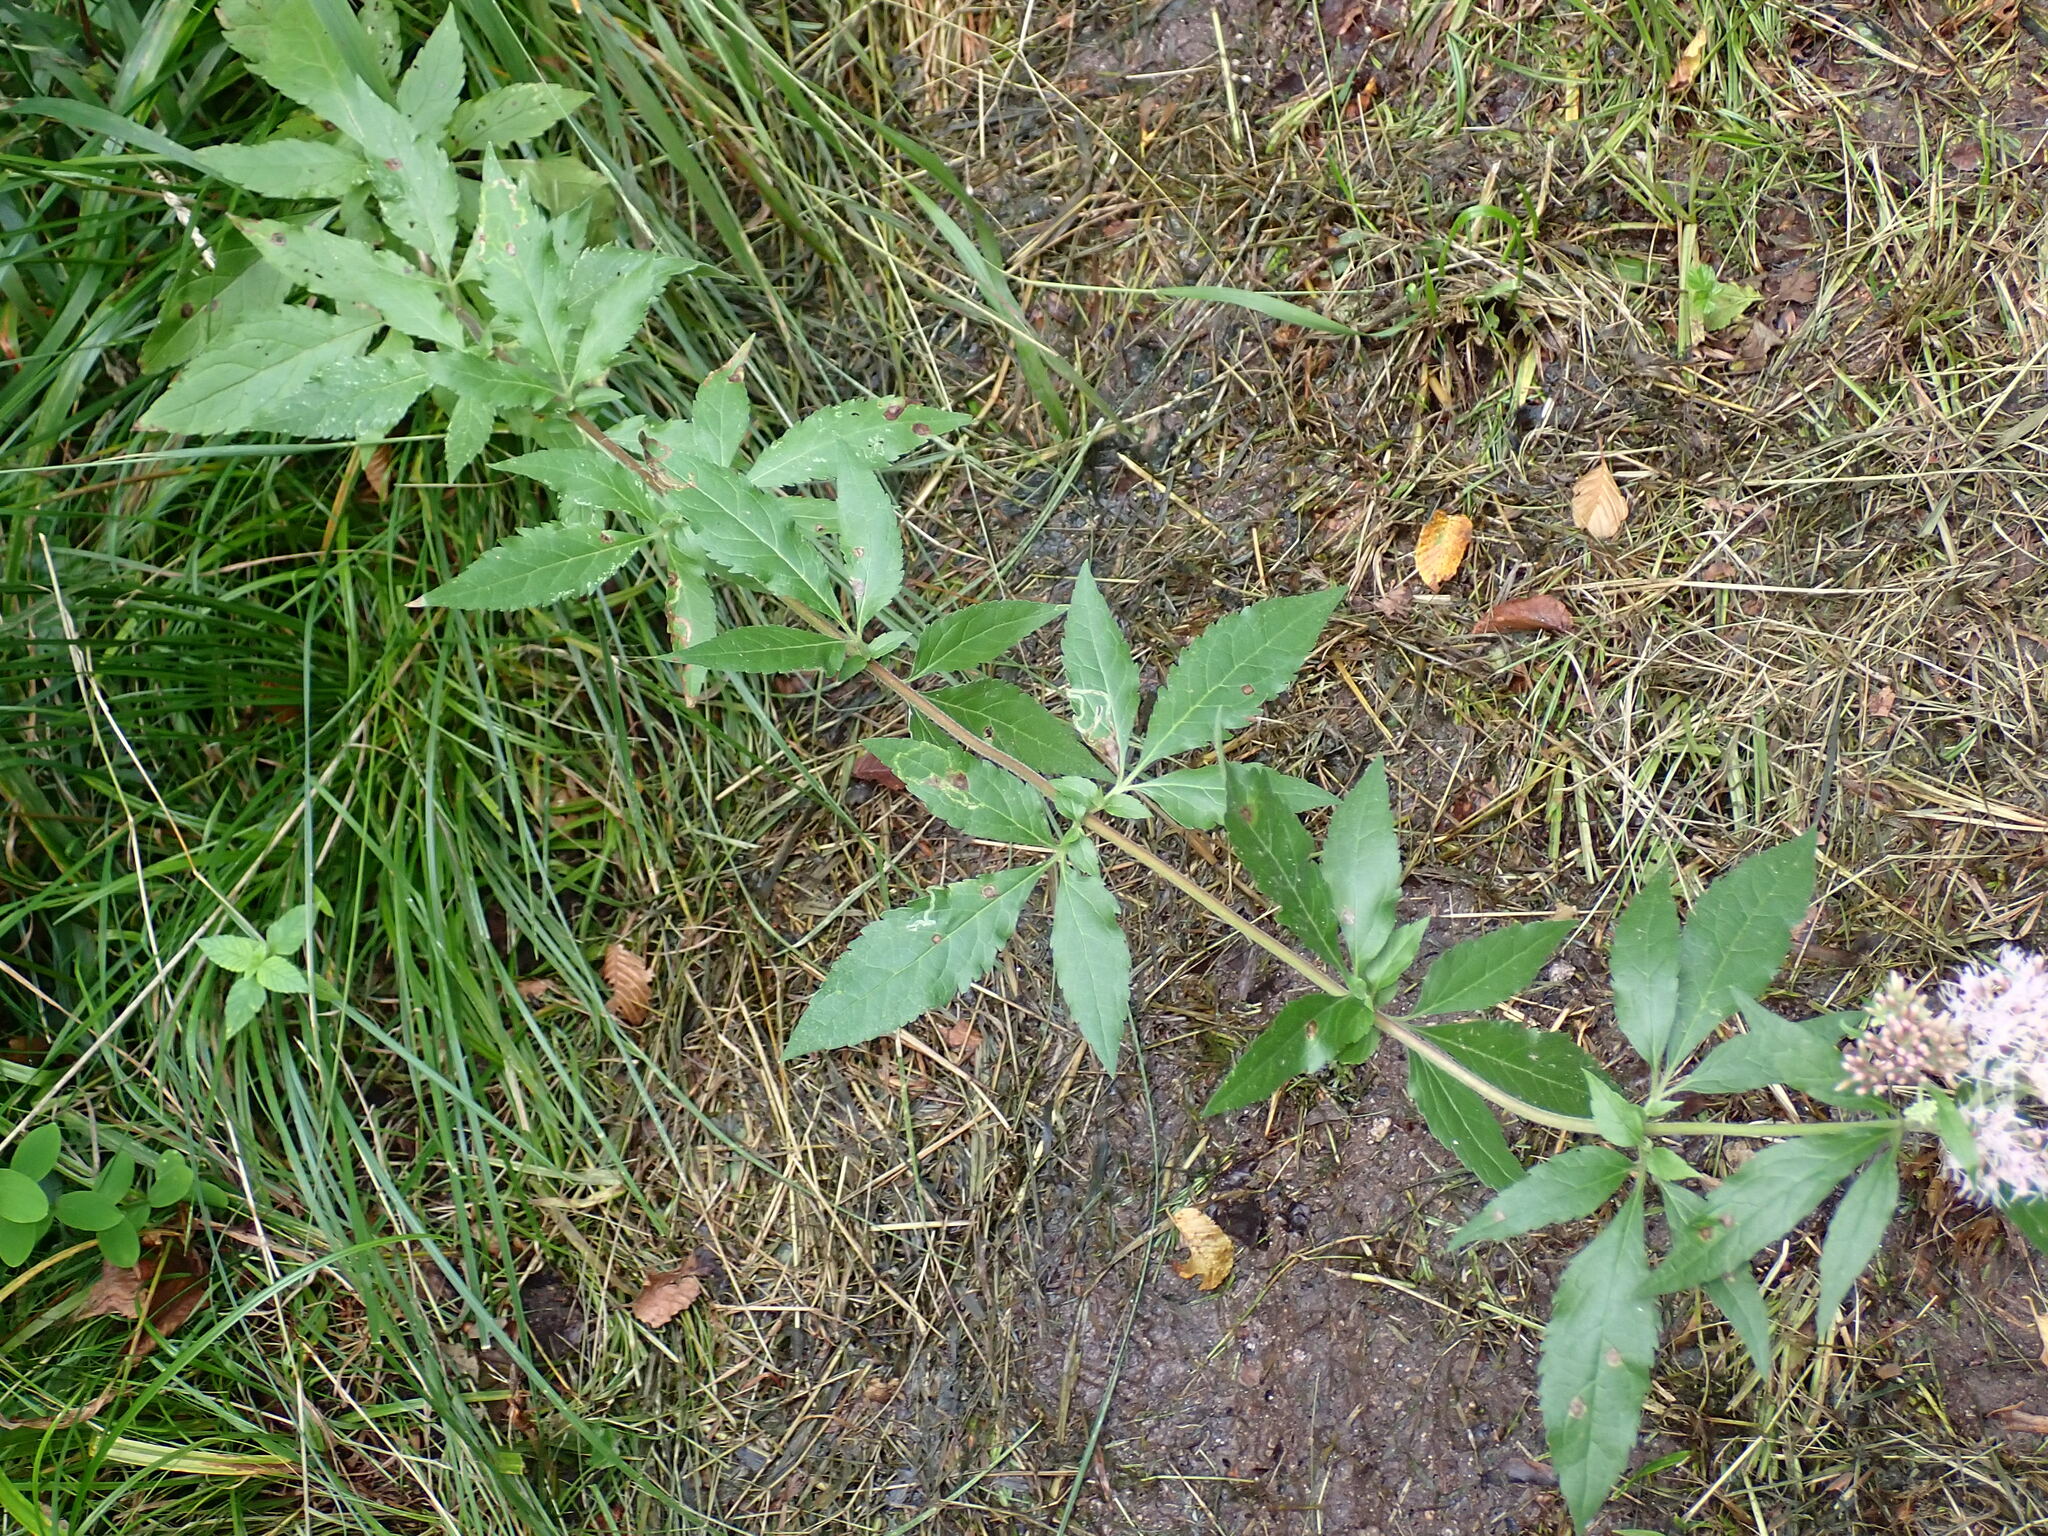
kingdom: Plantae
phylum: Tracheophyta
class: Magnoliopsida
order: Asterales
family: Asteraceae
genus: Eupatorium
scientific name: Eupatorium cannabinum
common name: Hemp-agrimony
